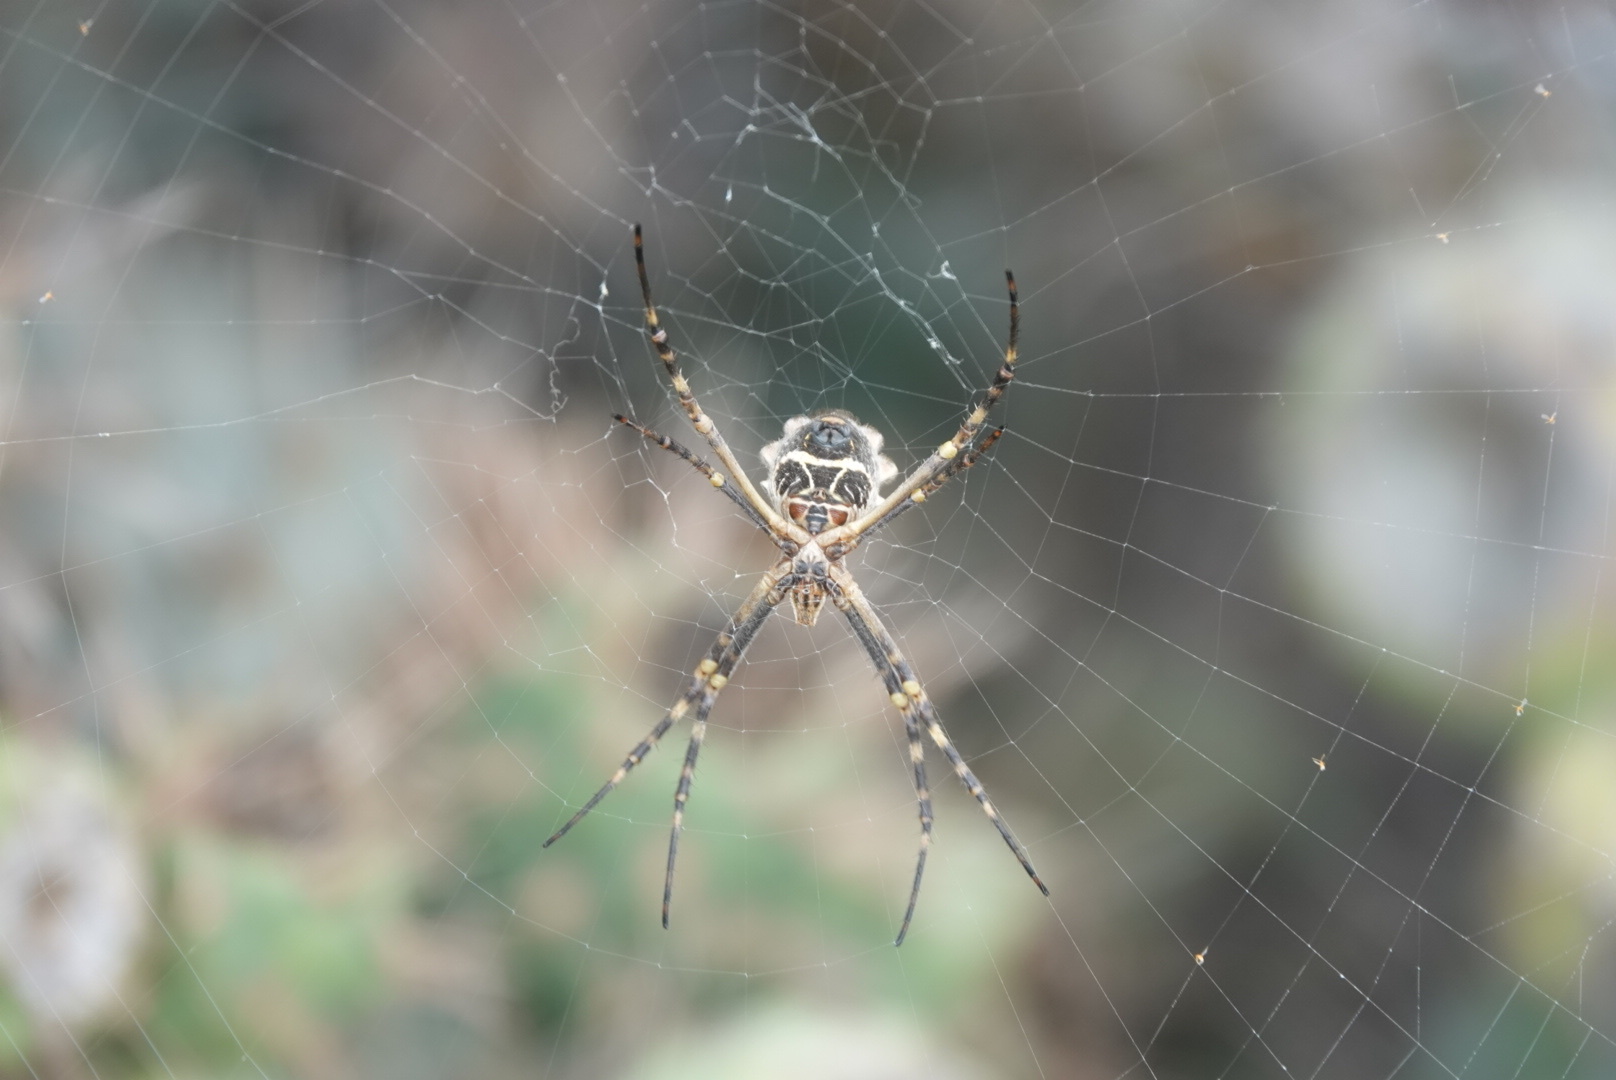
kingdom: Animalia
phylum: Arthropoda
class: Arachnida
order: Araneae
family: Araneidae
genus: Argiope
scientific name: Argiope argentata
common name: Orb weavers
